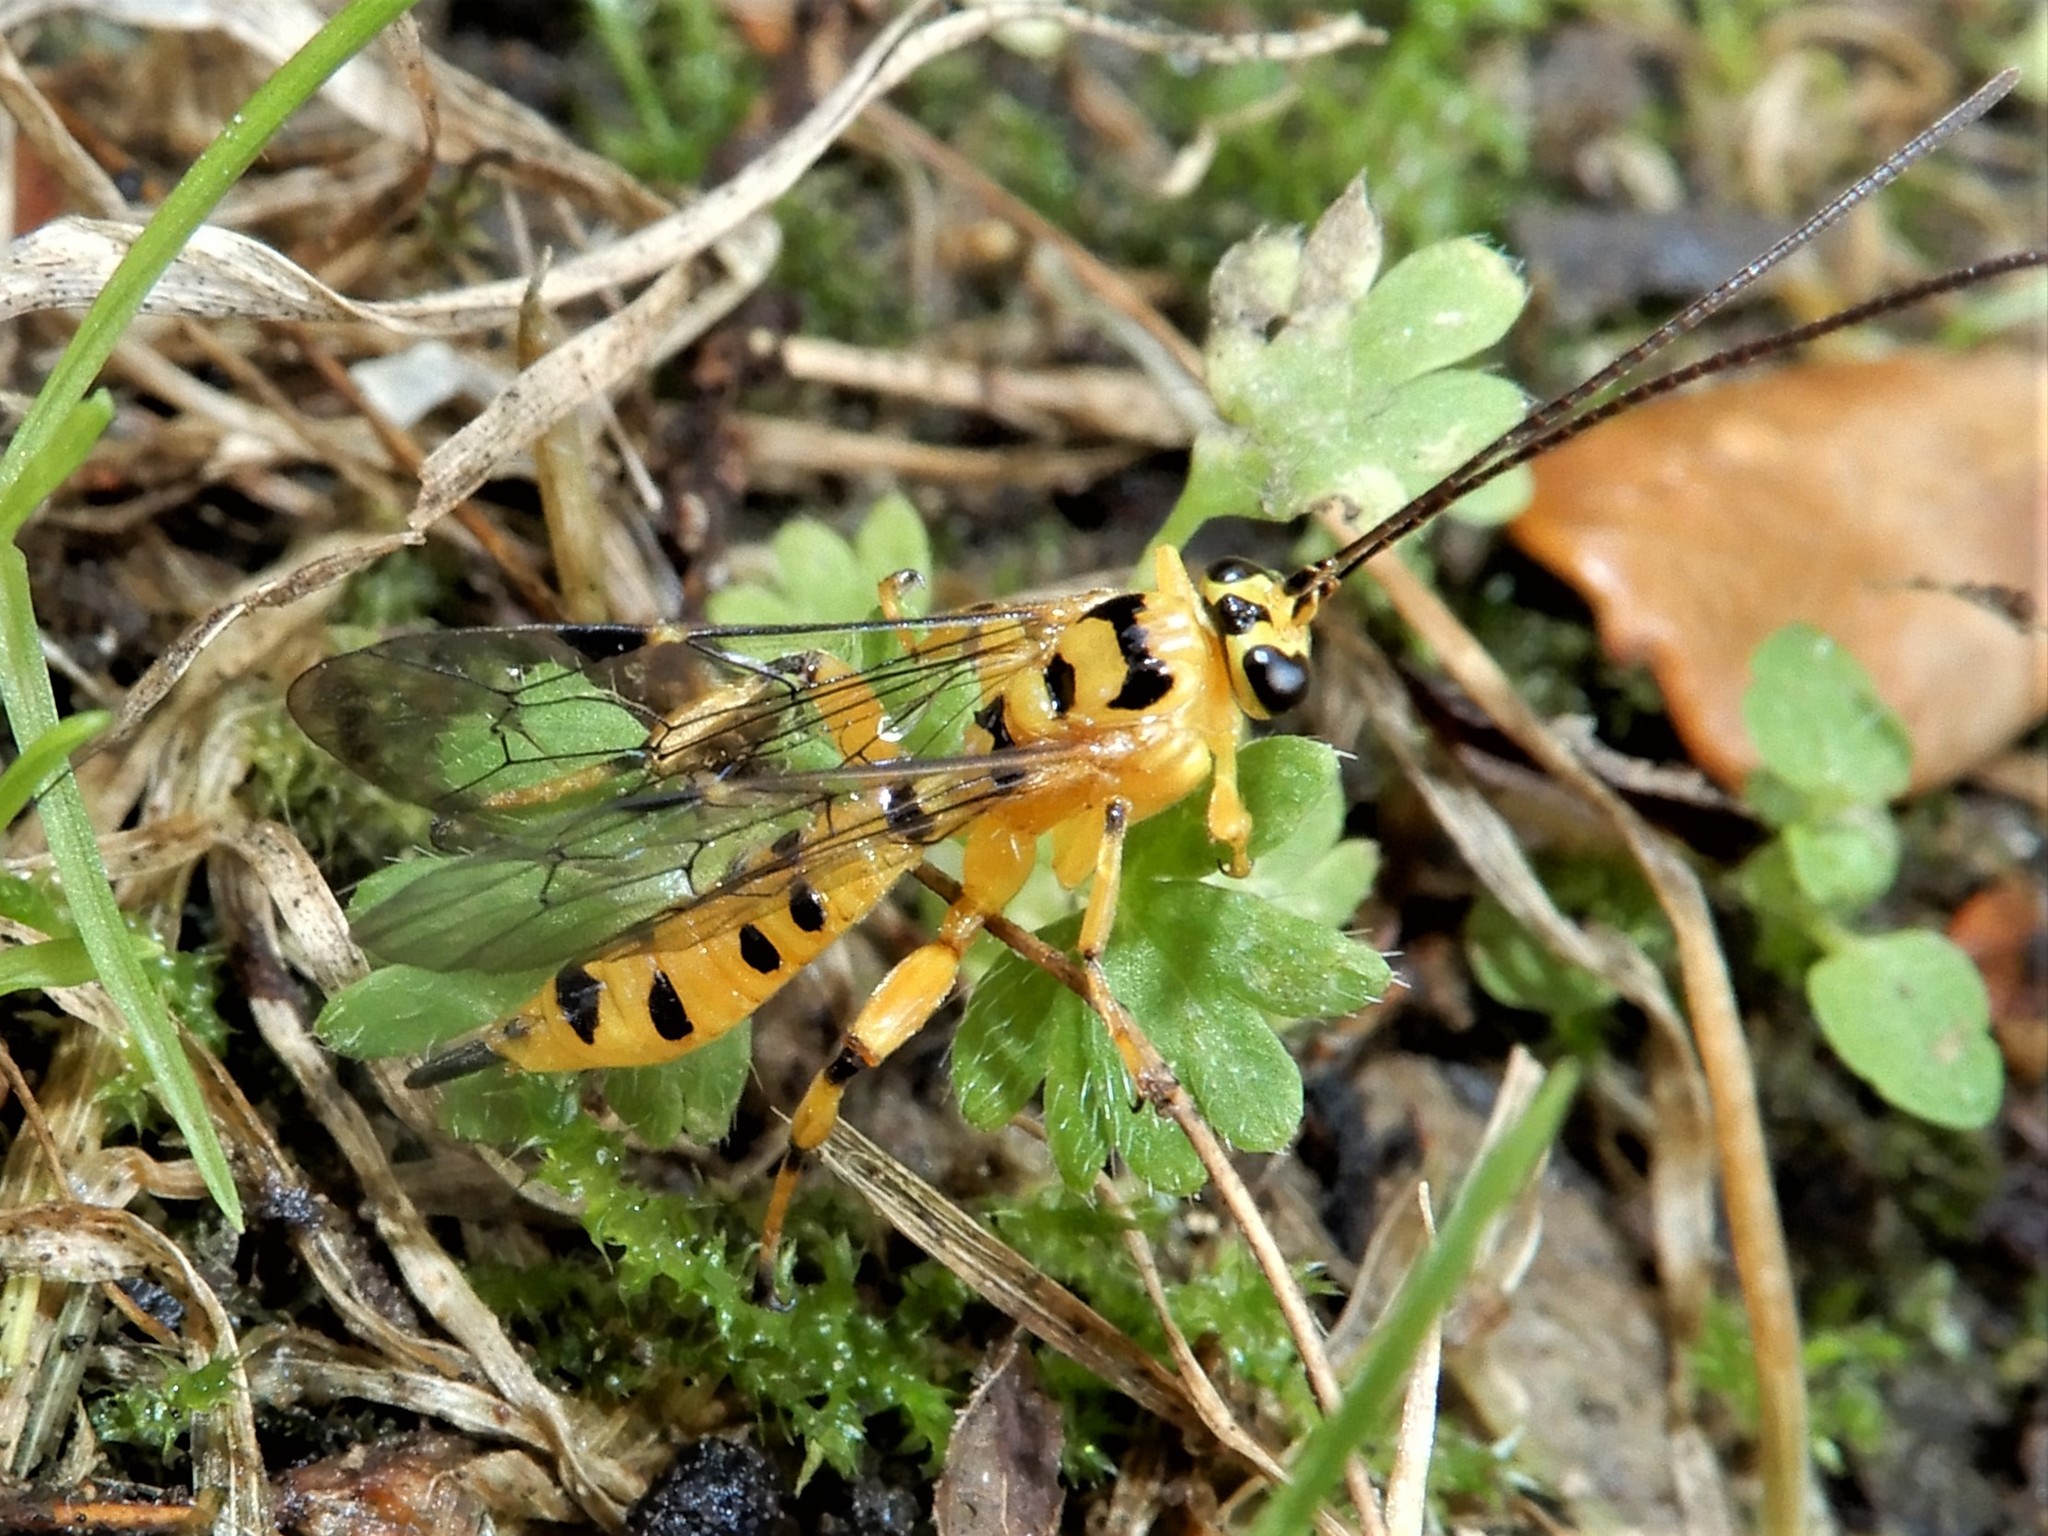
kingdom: Animalia
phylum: Arthropoda
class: Insecta
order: Hymenoptera
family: Ichneumonidae
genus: Xanthopimpla
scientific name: Xanthopimpla rhopaloceros
